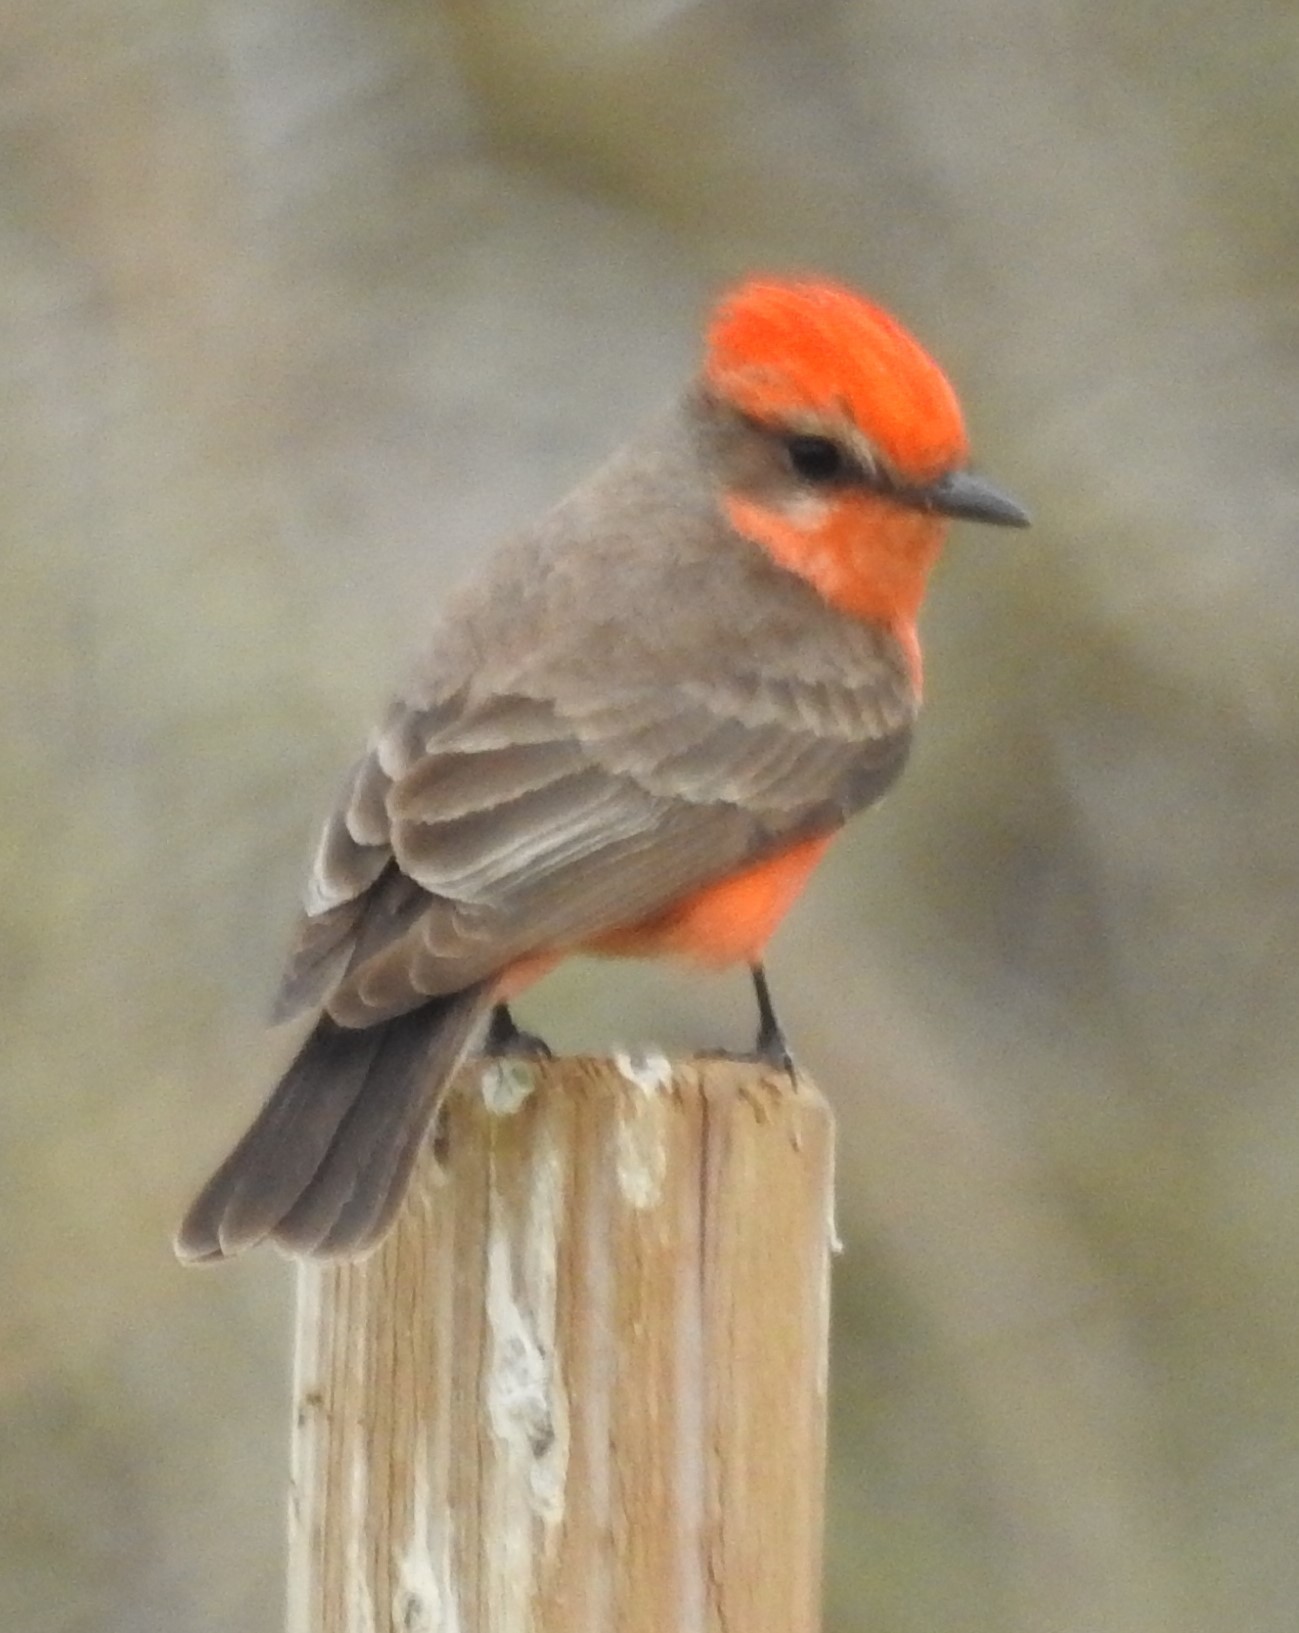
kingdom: Animalia
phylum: Chordata
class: Aves
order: Passeriformes
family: Tyrannidae
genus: Pyrocephalus
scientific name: Pyrocephalus rubinus
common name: Vermilion flycatcher
